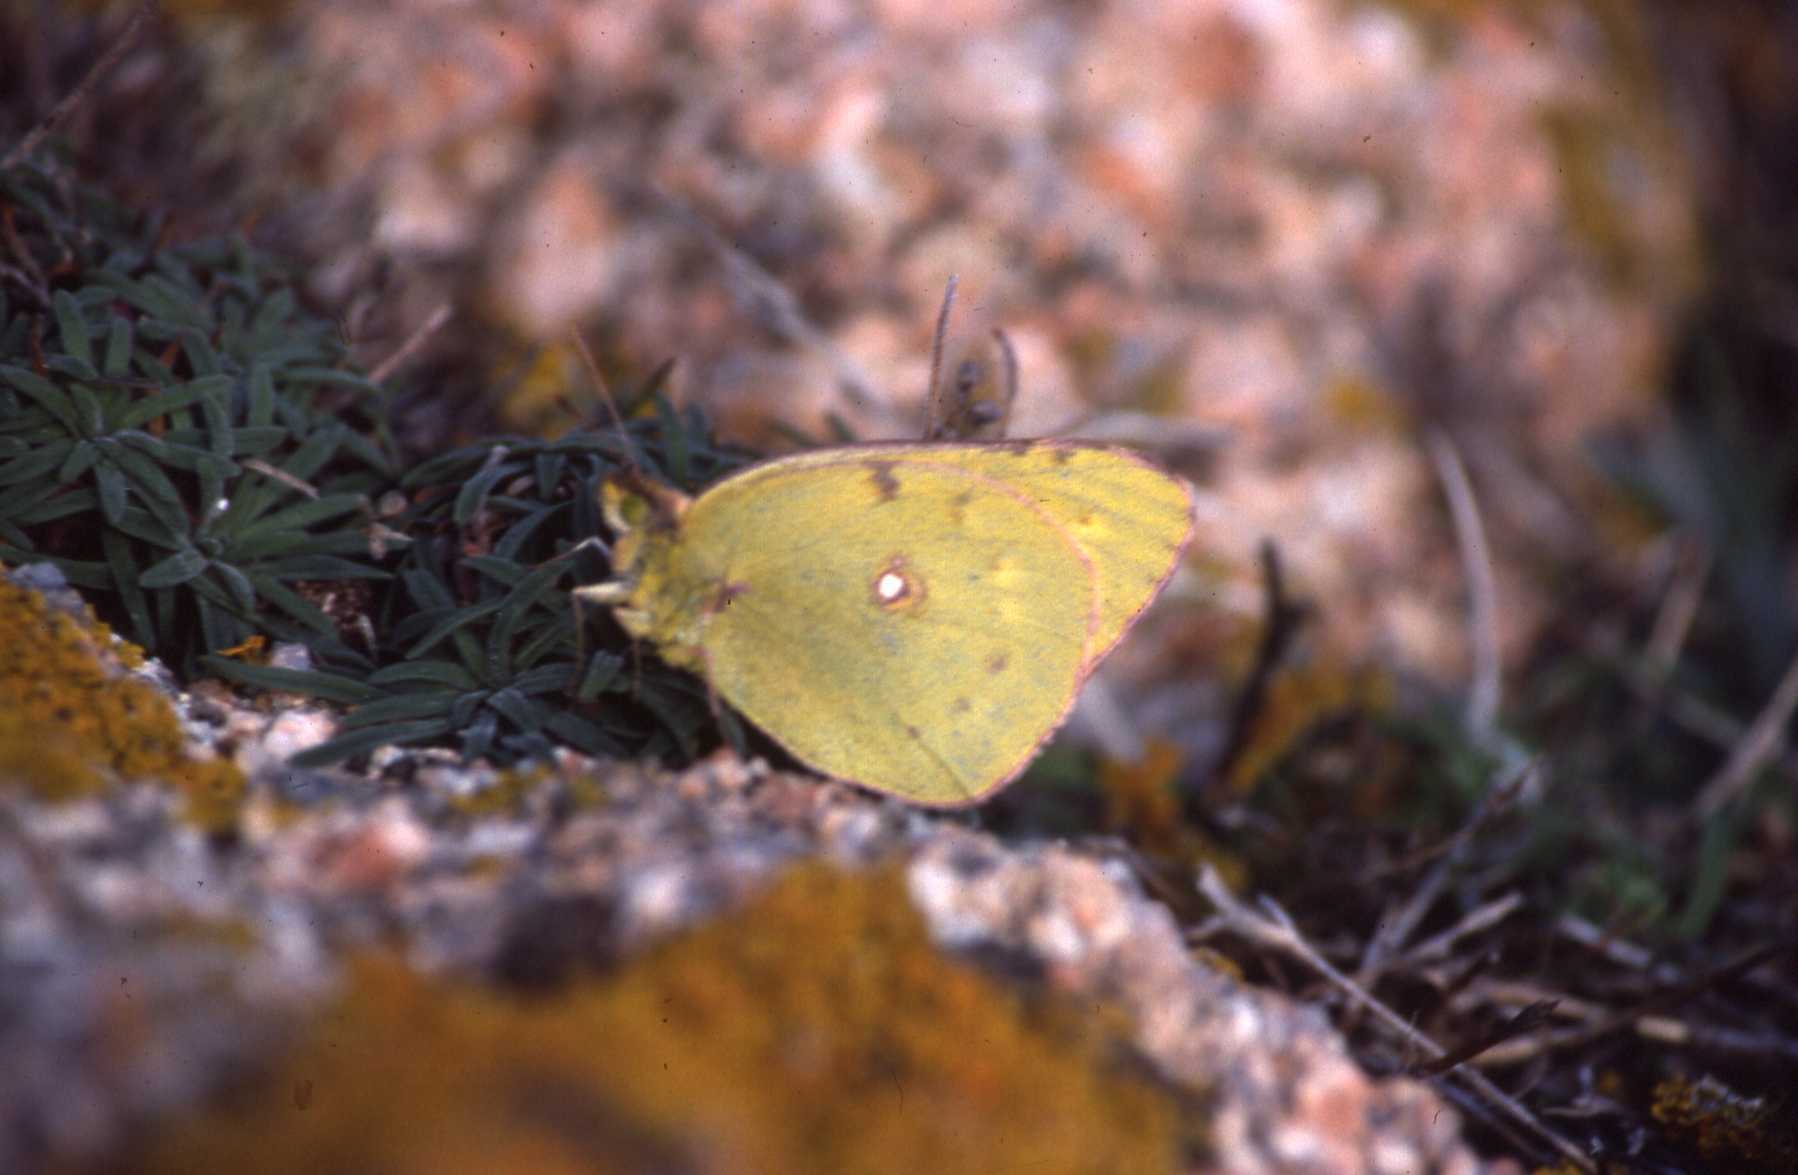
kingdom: Animalia
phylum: Arthropoda
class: Insecta
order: Lepidoptera
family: Pieridae
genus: Colias
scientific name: Colias croceus
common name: Clouded yellow
